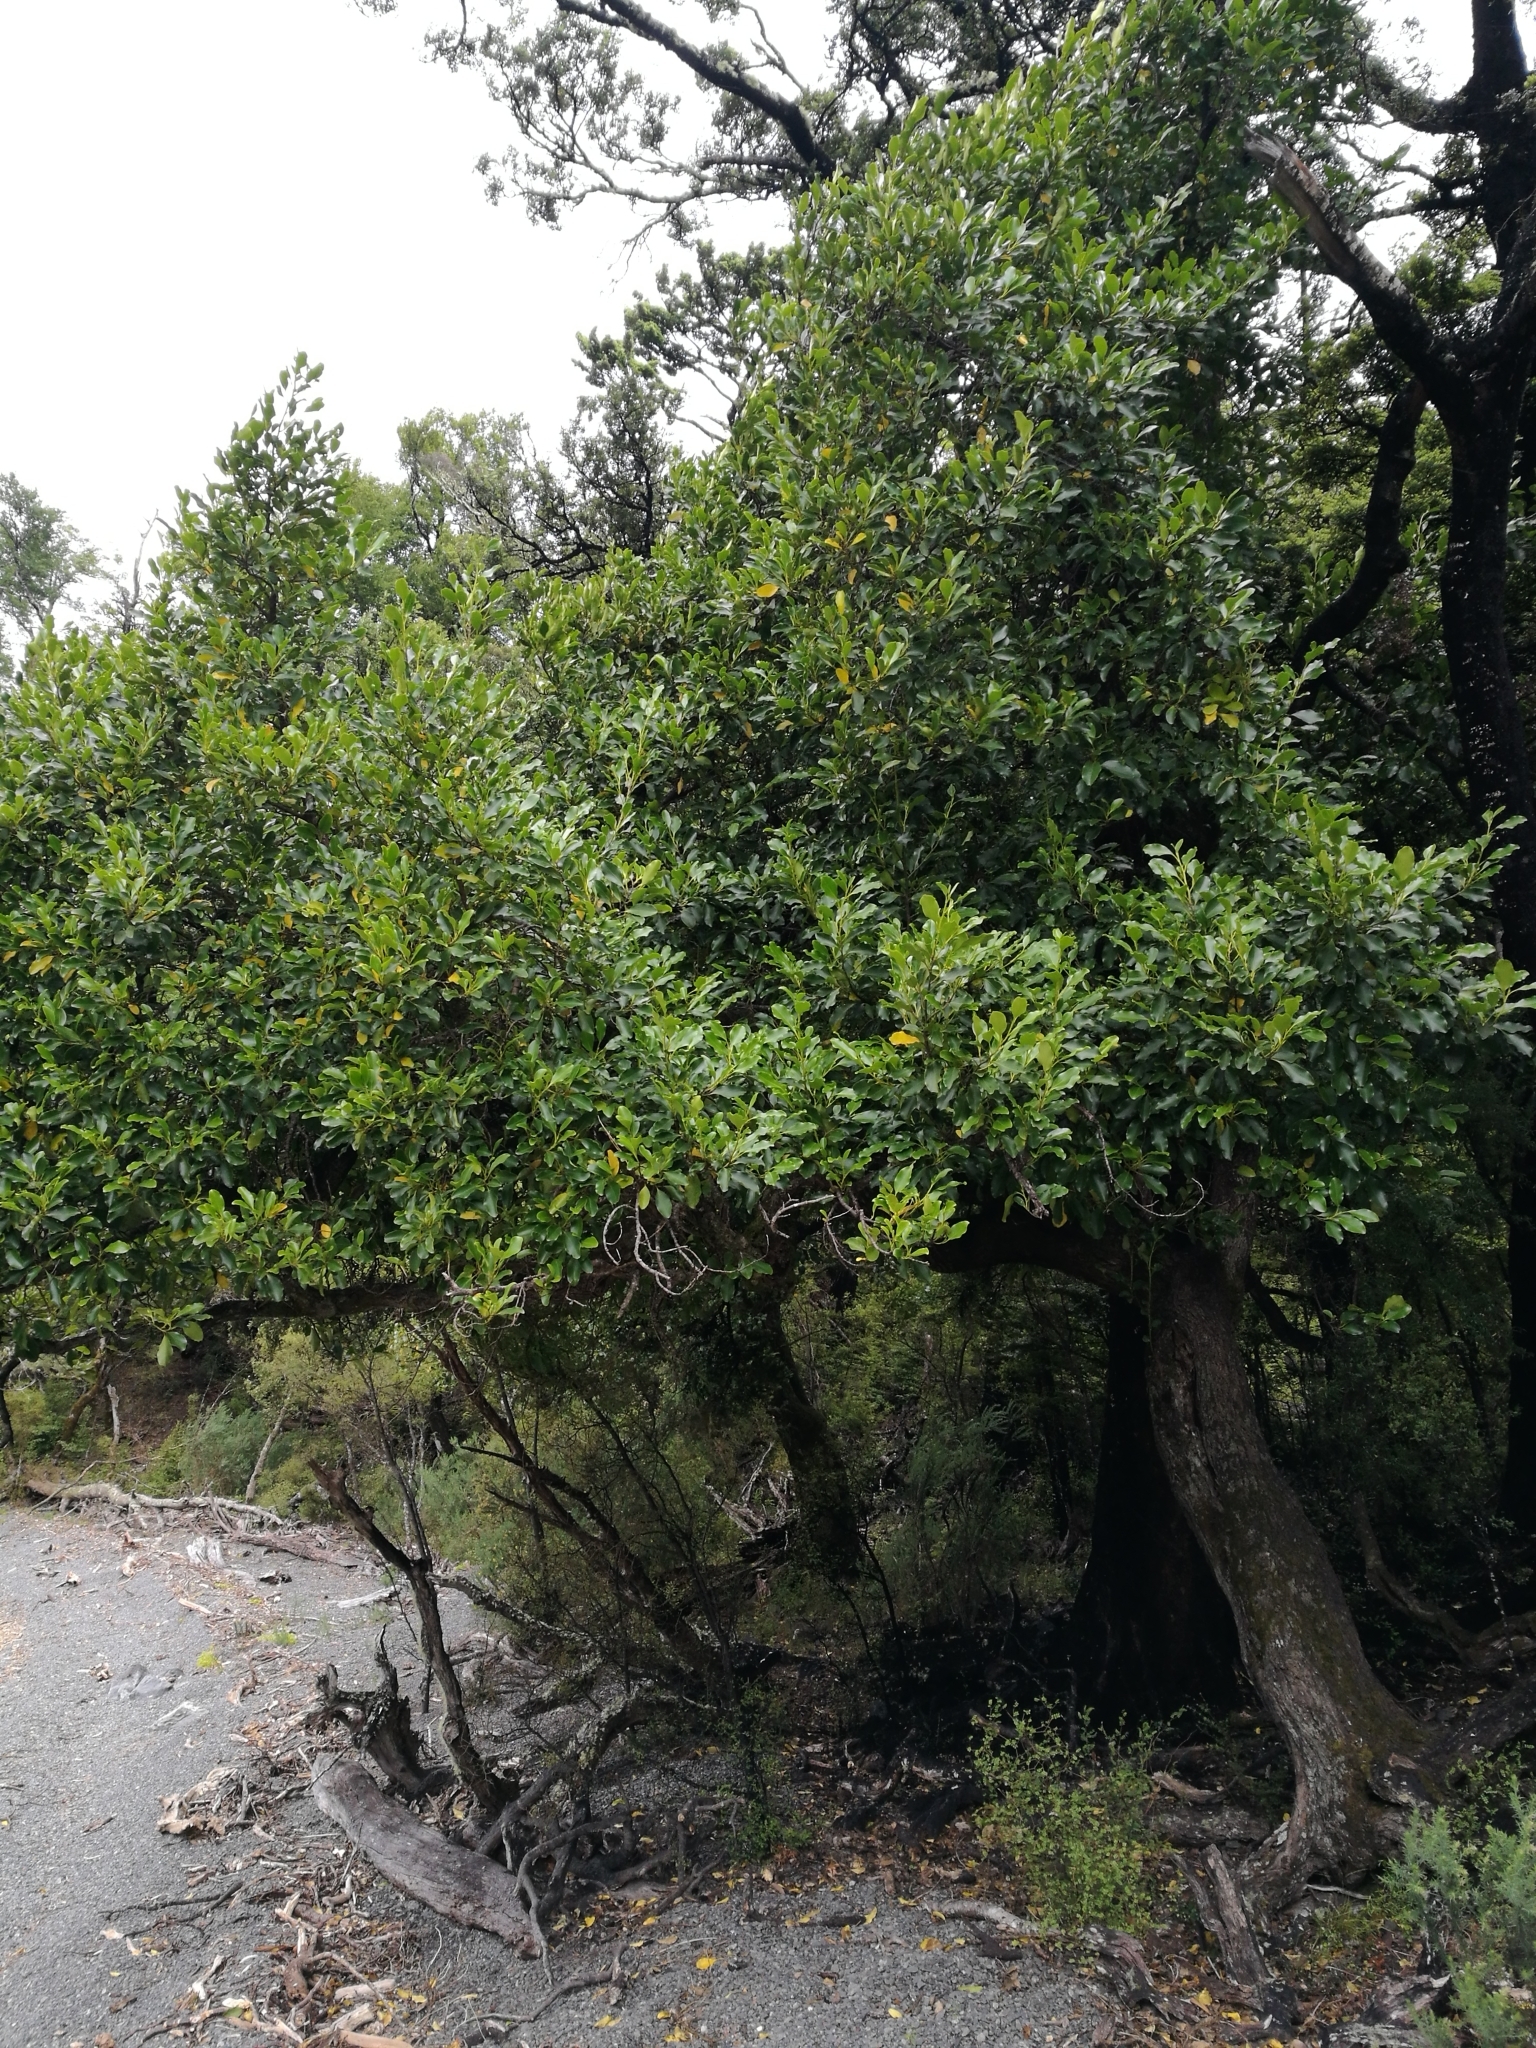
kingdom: Plantae
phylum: Tracheophyta
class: Magnoliopsida
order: Apiales
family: Griseliniaceae
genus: Griselinia
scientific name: Griselinia littoralis
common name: New zealand broadleaf
